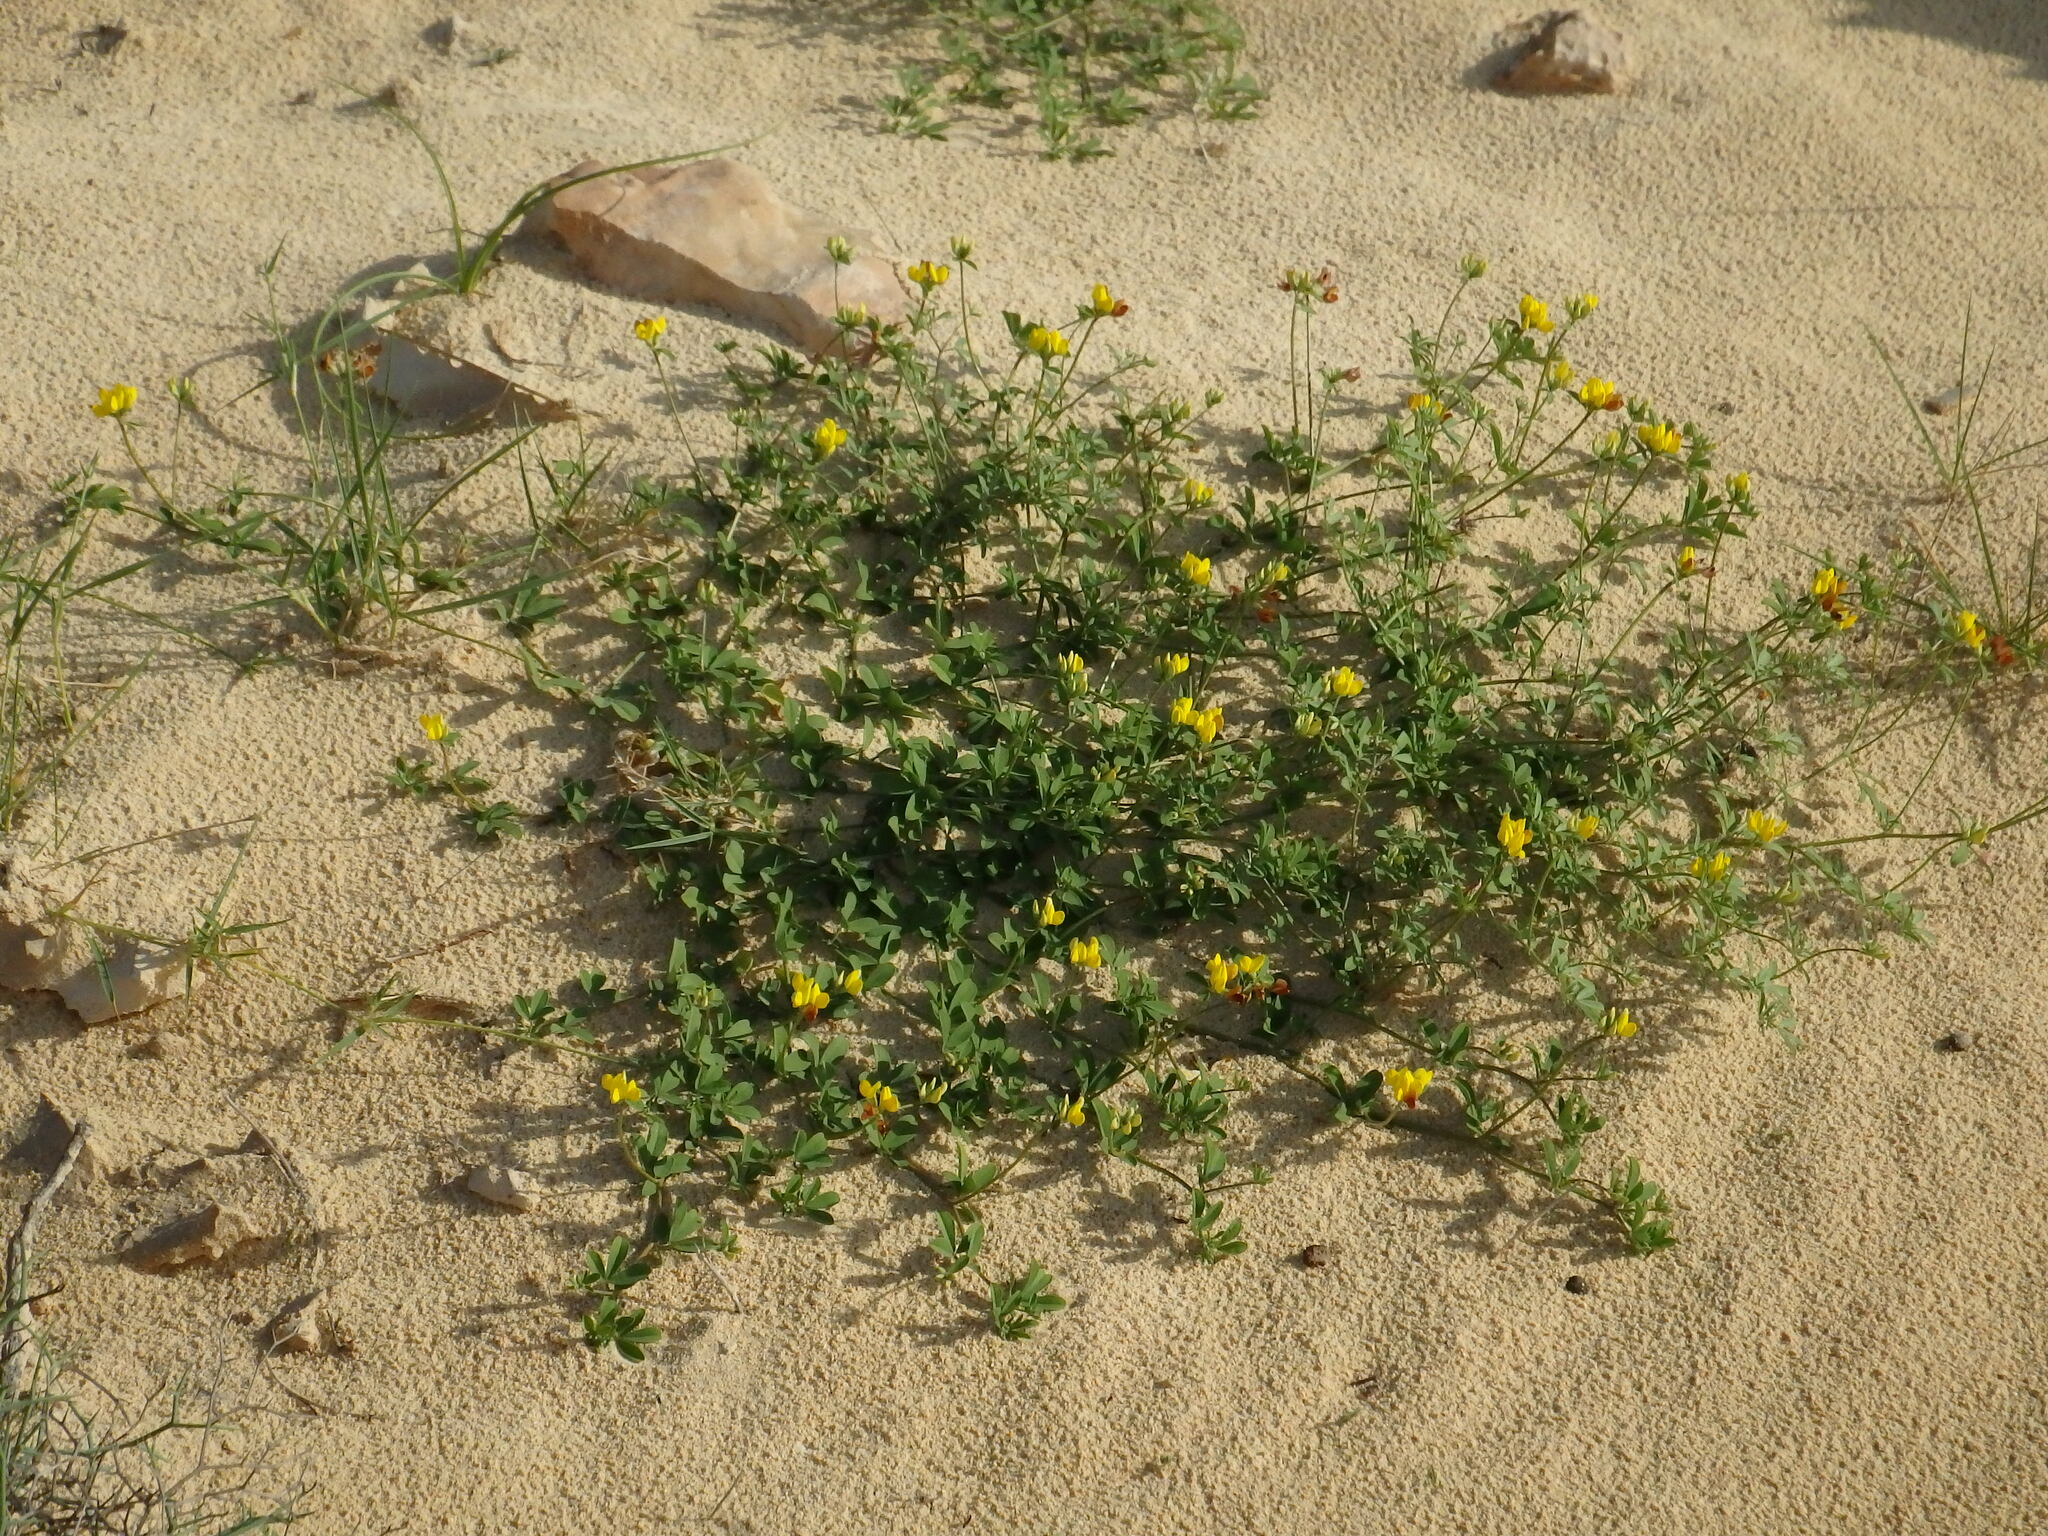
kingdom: Plantae
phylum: Tracheophyta
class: Magnoliopsida
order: Fabales
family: Fabaceae
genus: Lotus
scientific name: Lotus purpureus
